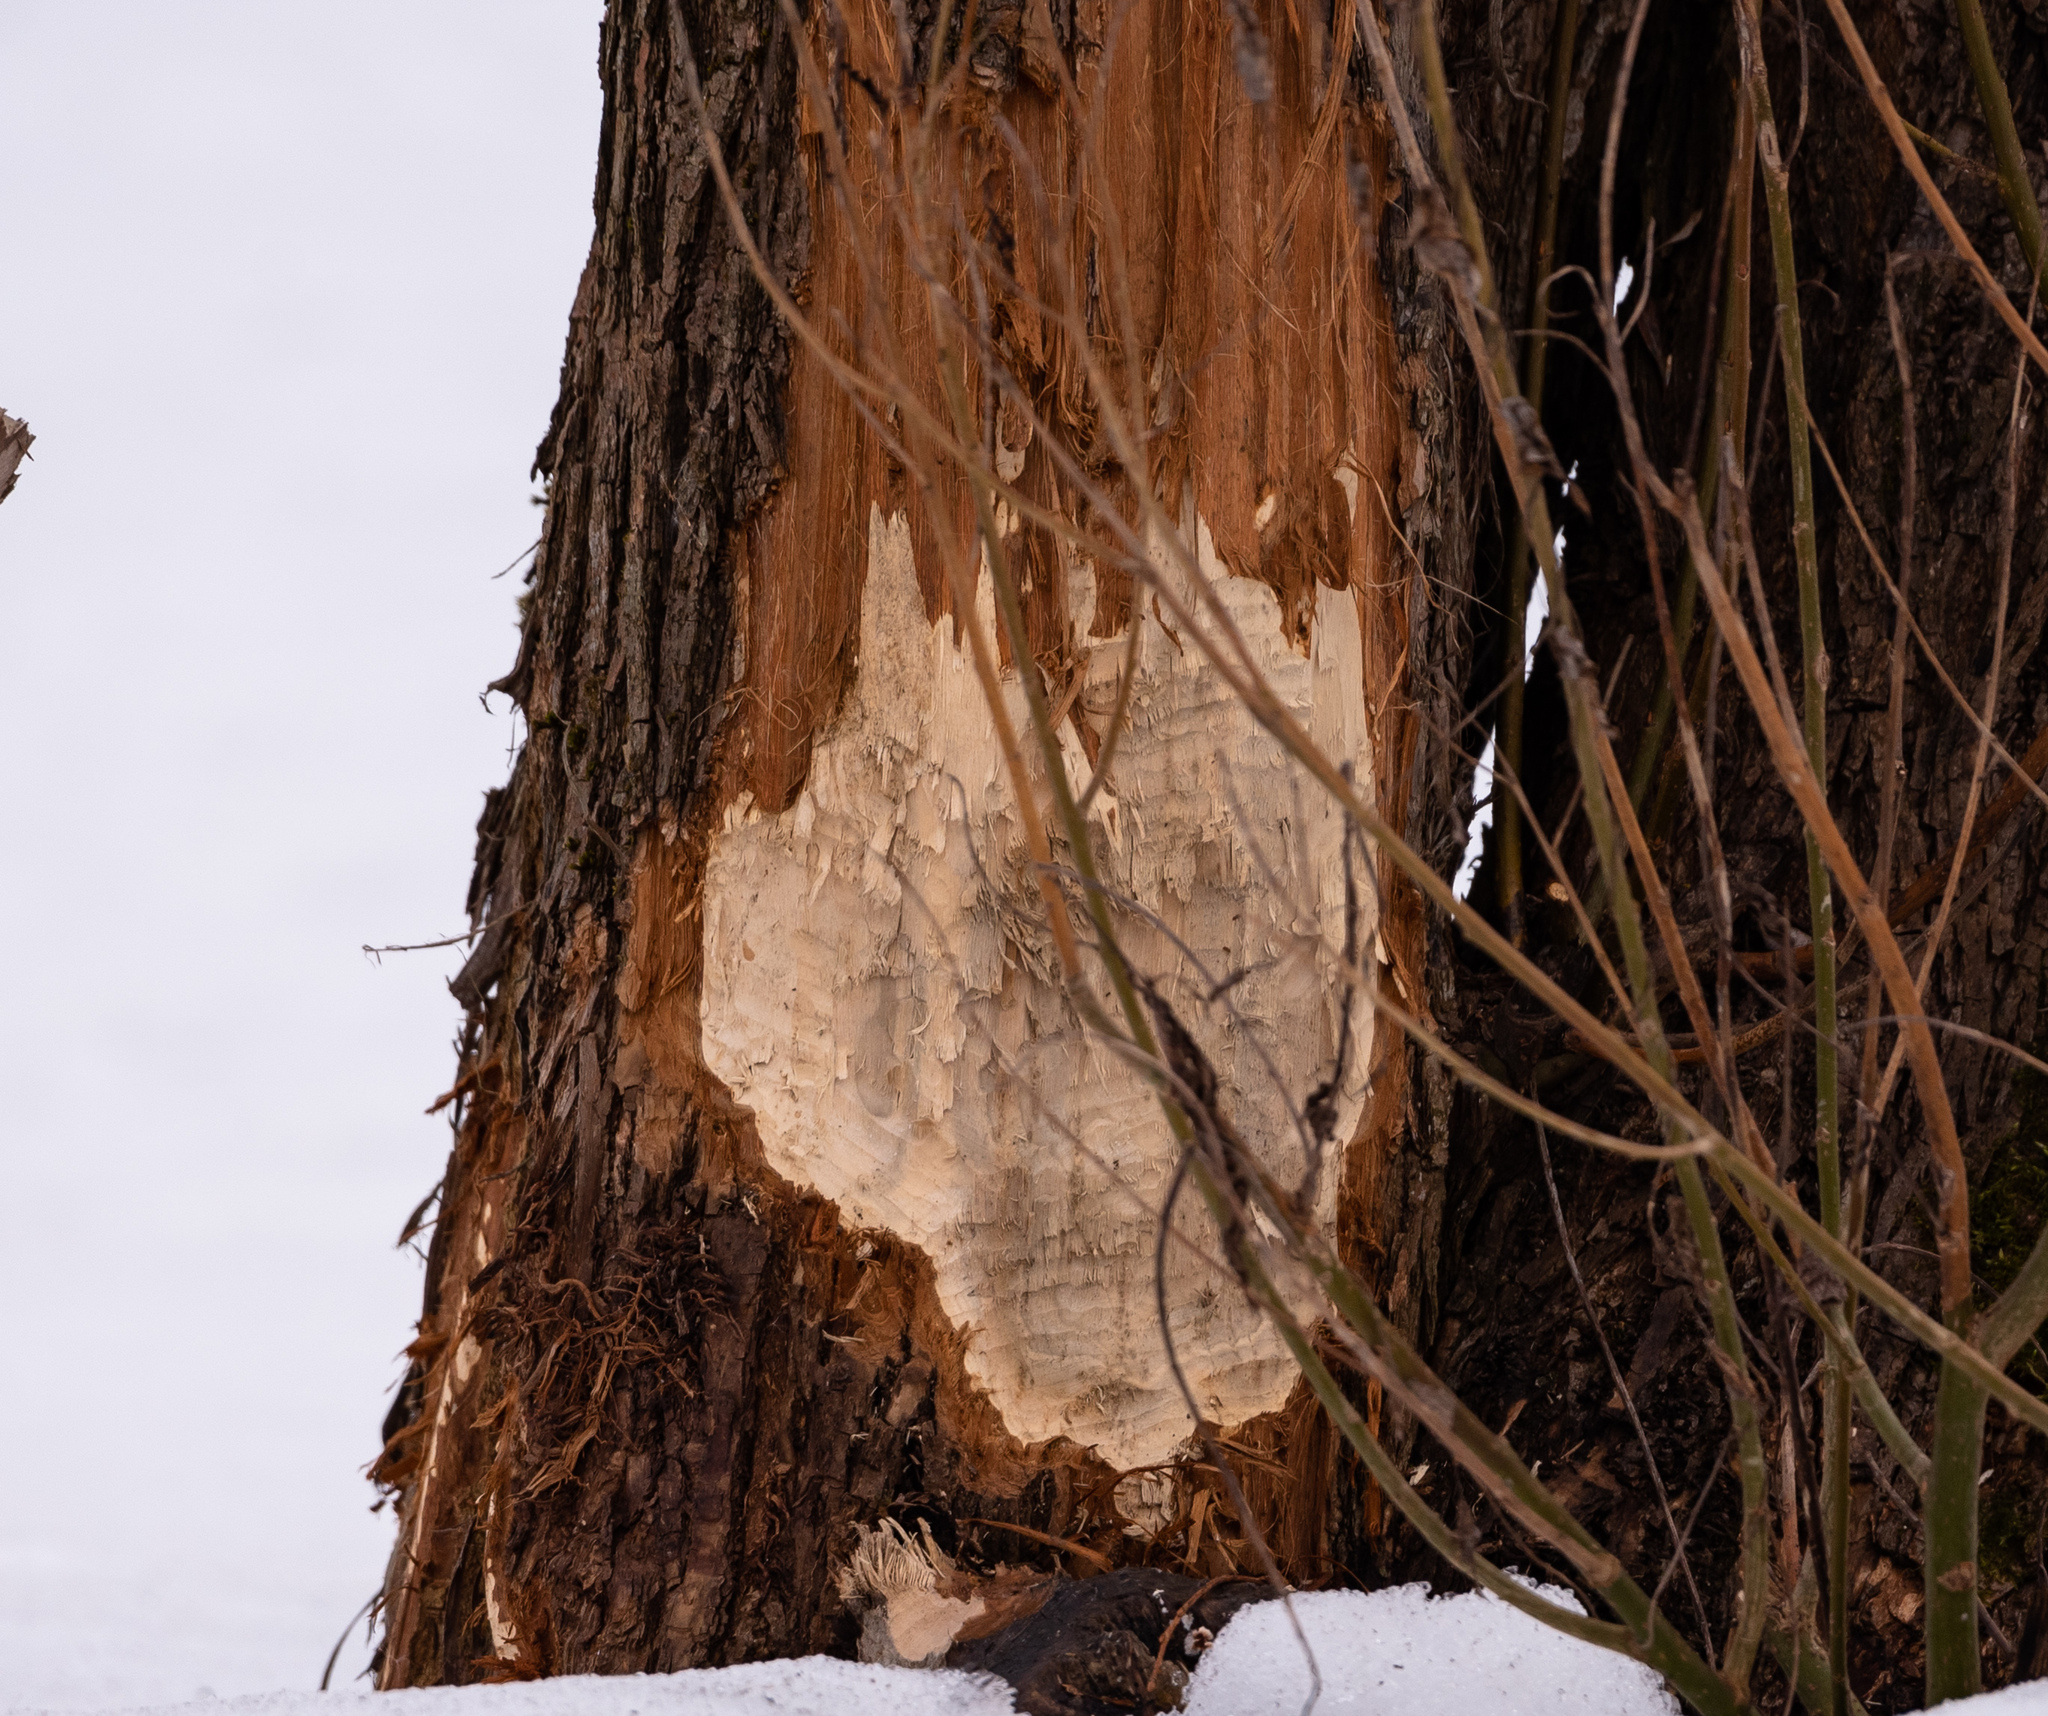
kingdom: Animalia
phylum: Chordata
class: Mammalia
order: Rodentia
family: Castoridae
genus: Castor
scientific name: Castor fiber
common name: Eurasian beaver
